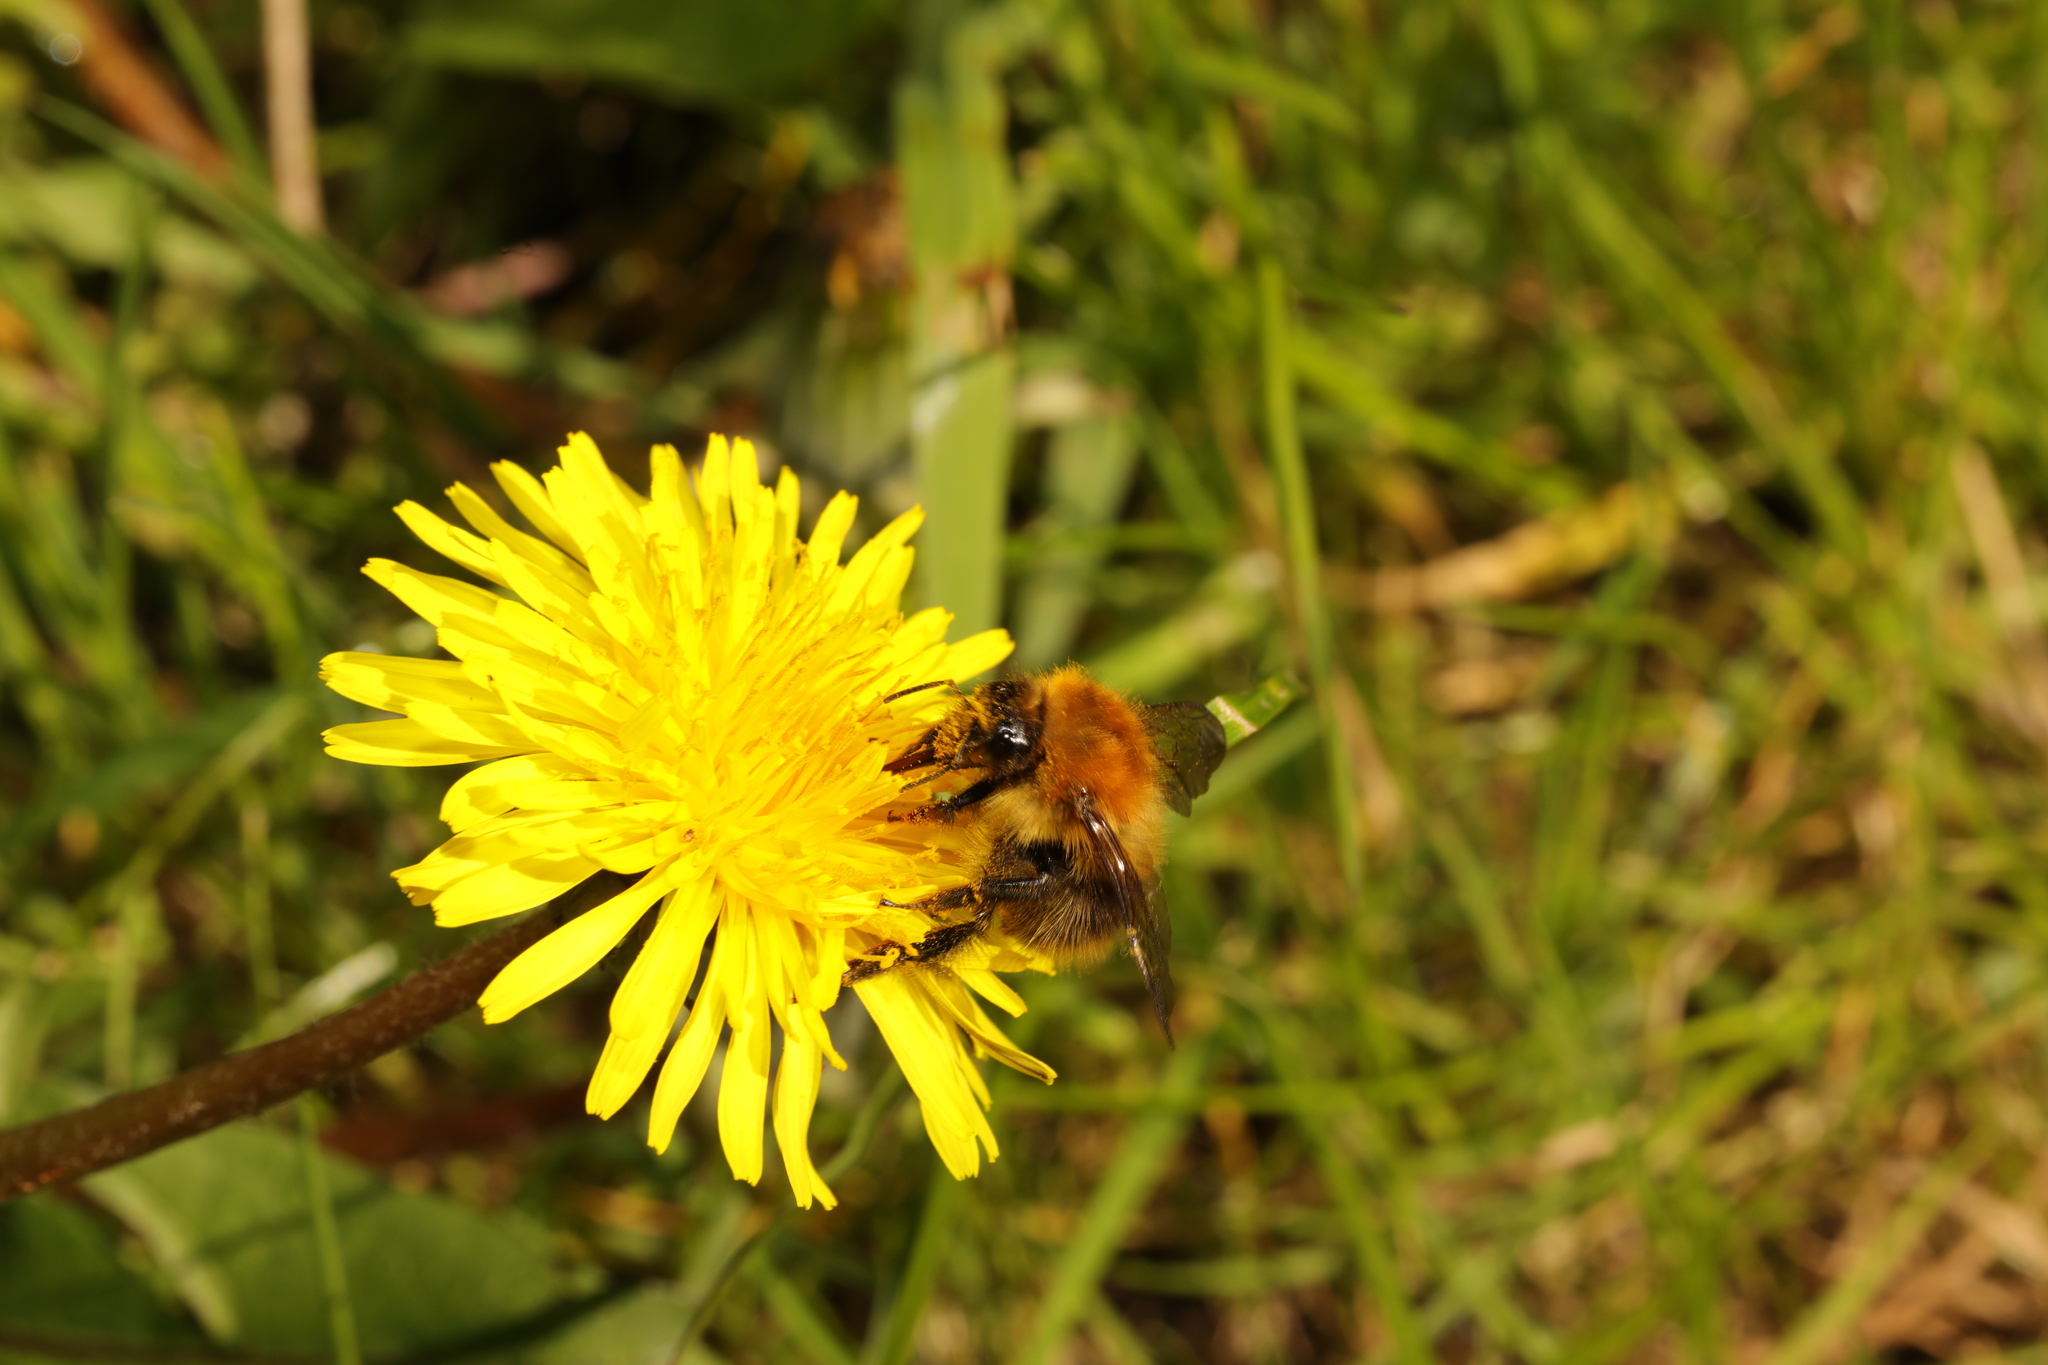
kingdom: Animalia
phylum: Arthropoda
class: Insecta
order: Hymenoptera
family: Apidae
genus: Bombus
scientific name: Bombus pascuorum
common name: Common carder bee
